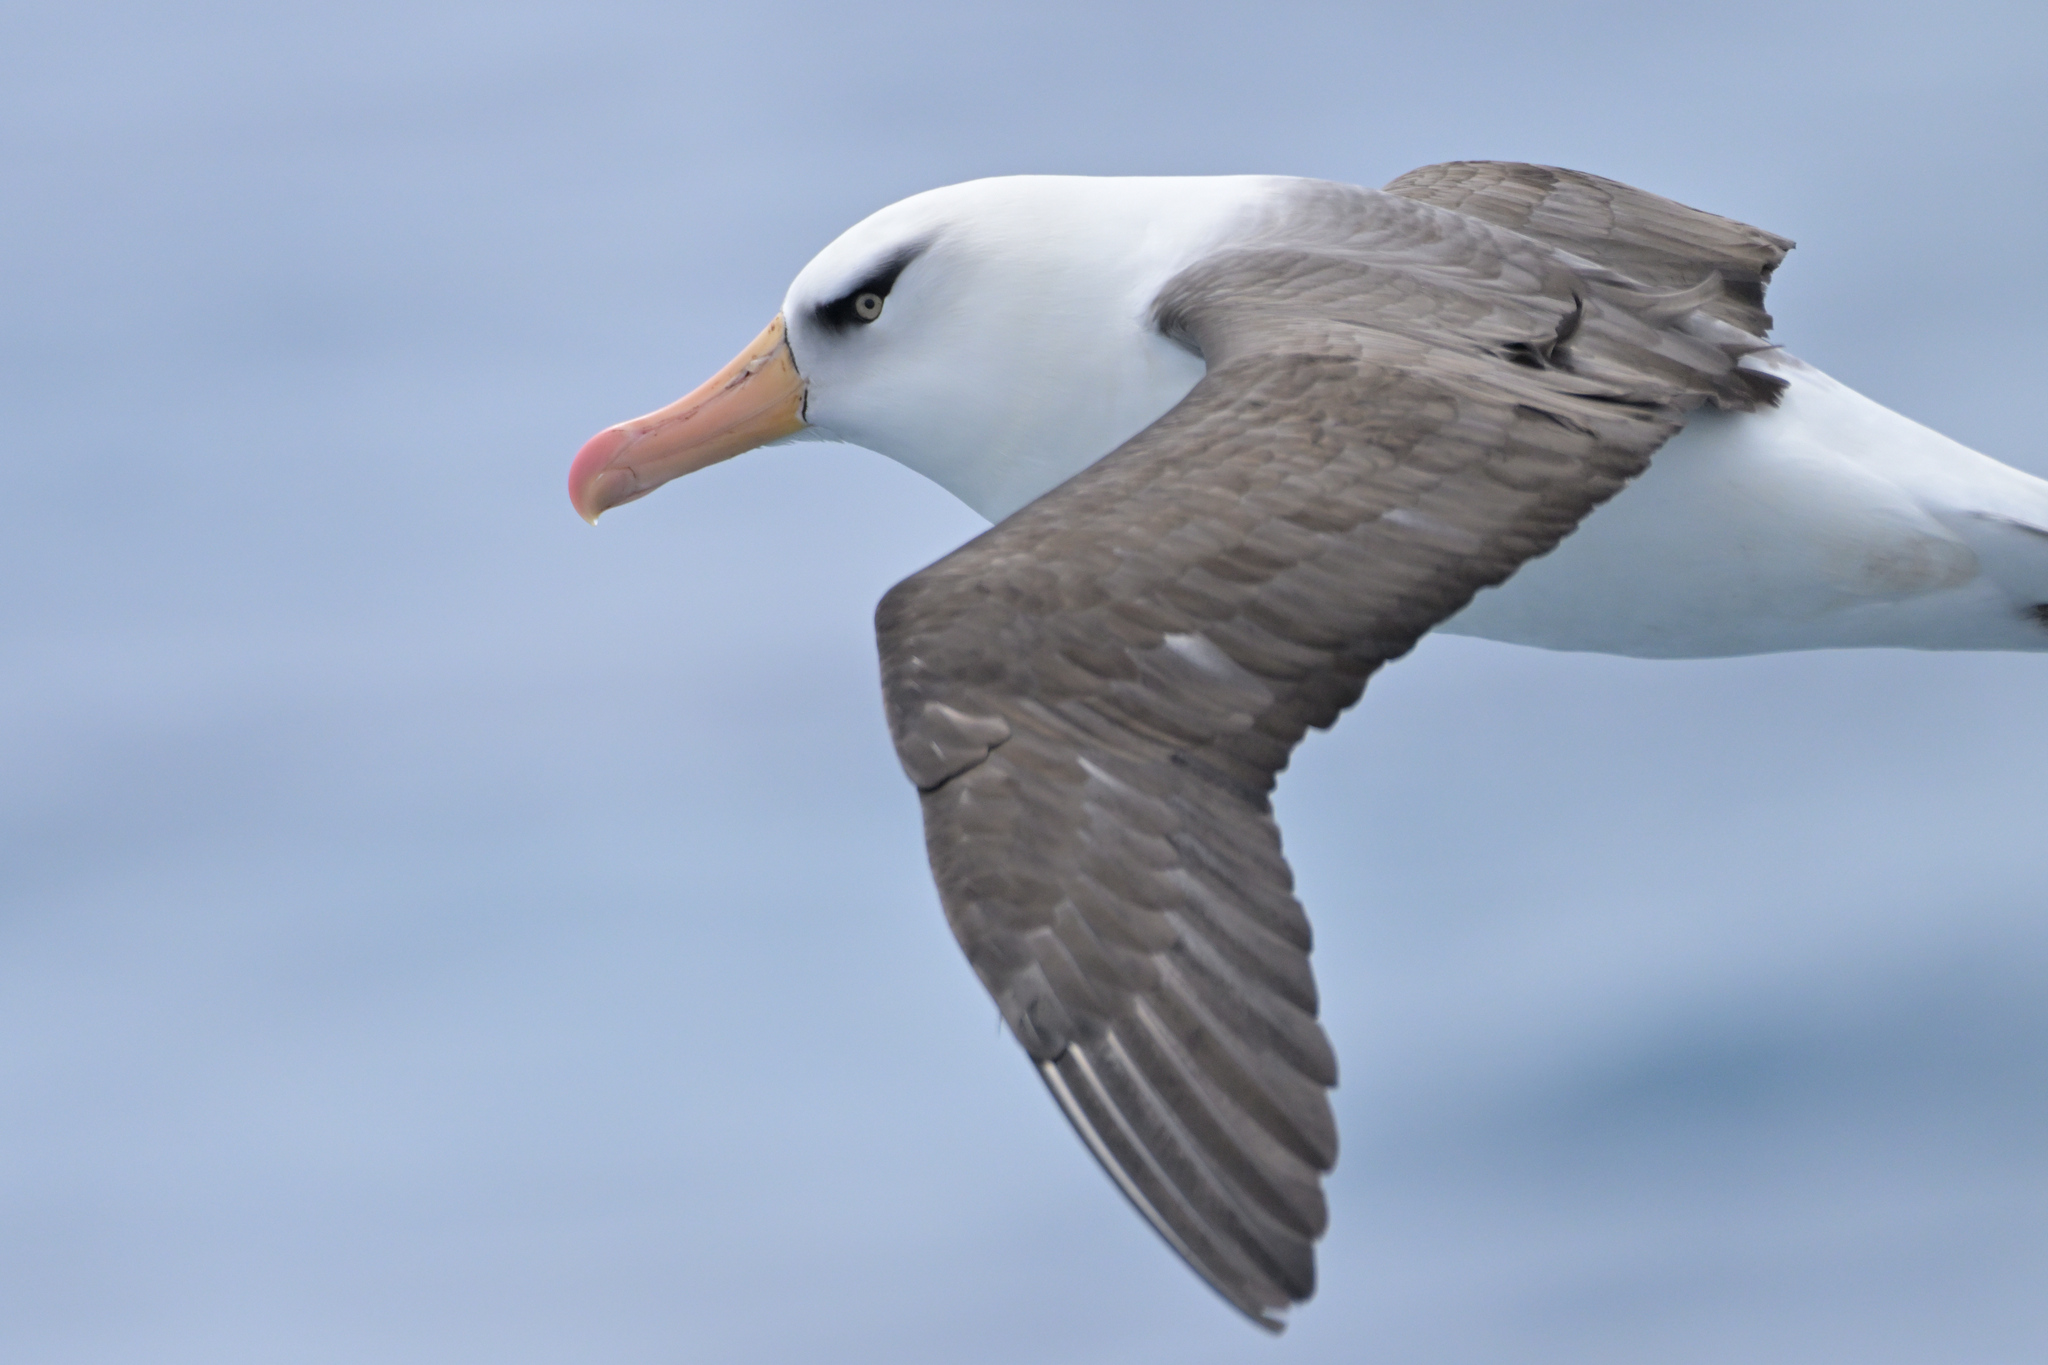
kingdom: Animalia
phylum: Chordata
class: Aves
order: Procellariiformes
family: Diomedeidae
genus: Thalassarche
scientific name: Thalassarche impavida
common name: Campbell albatross
